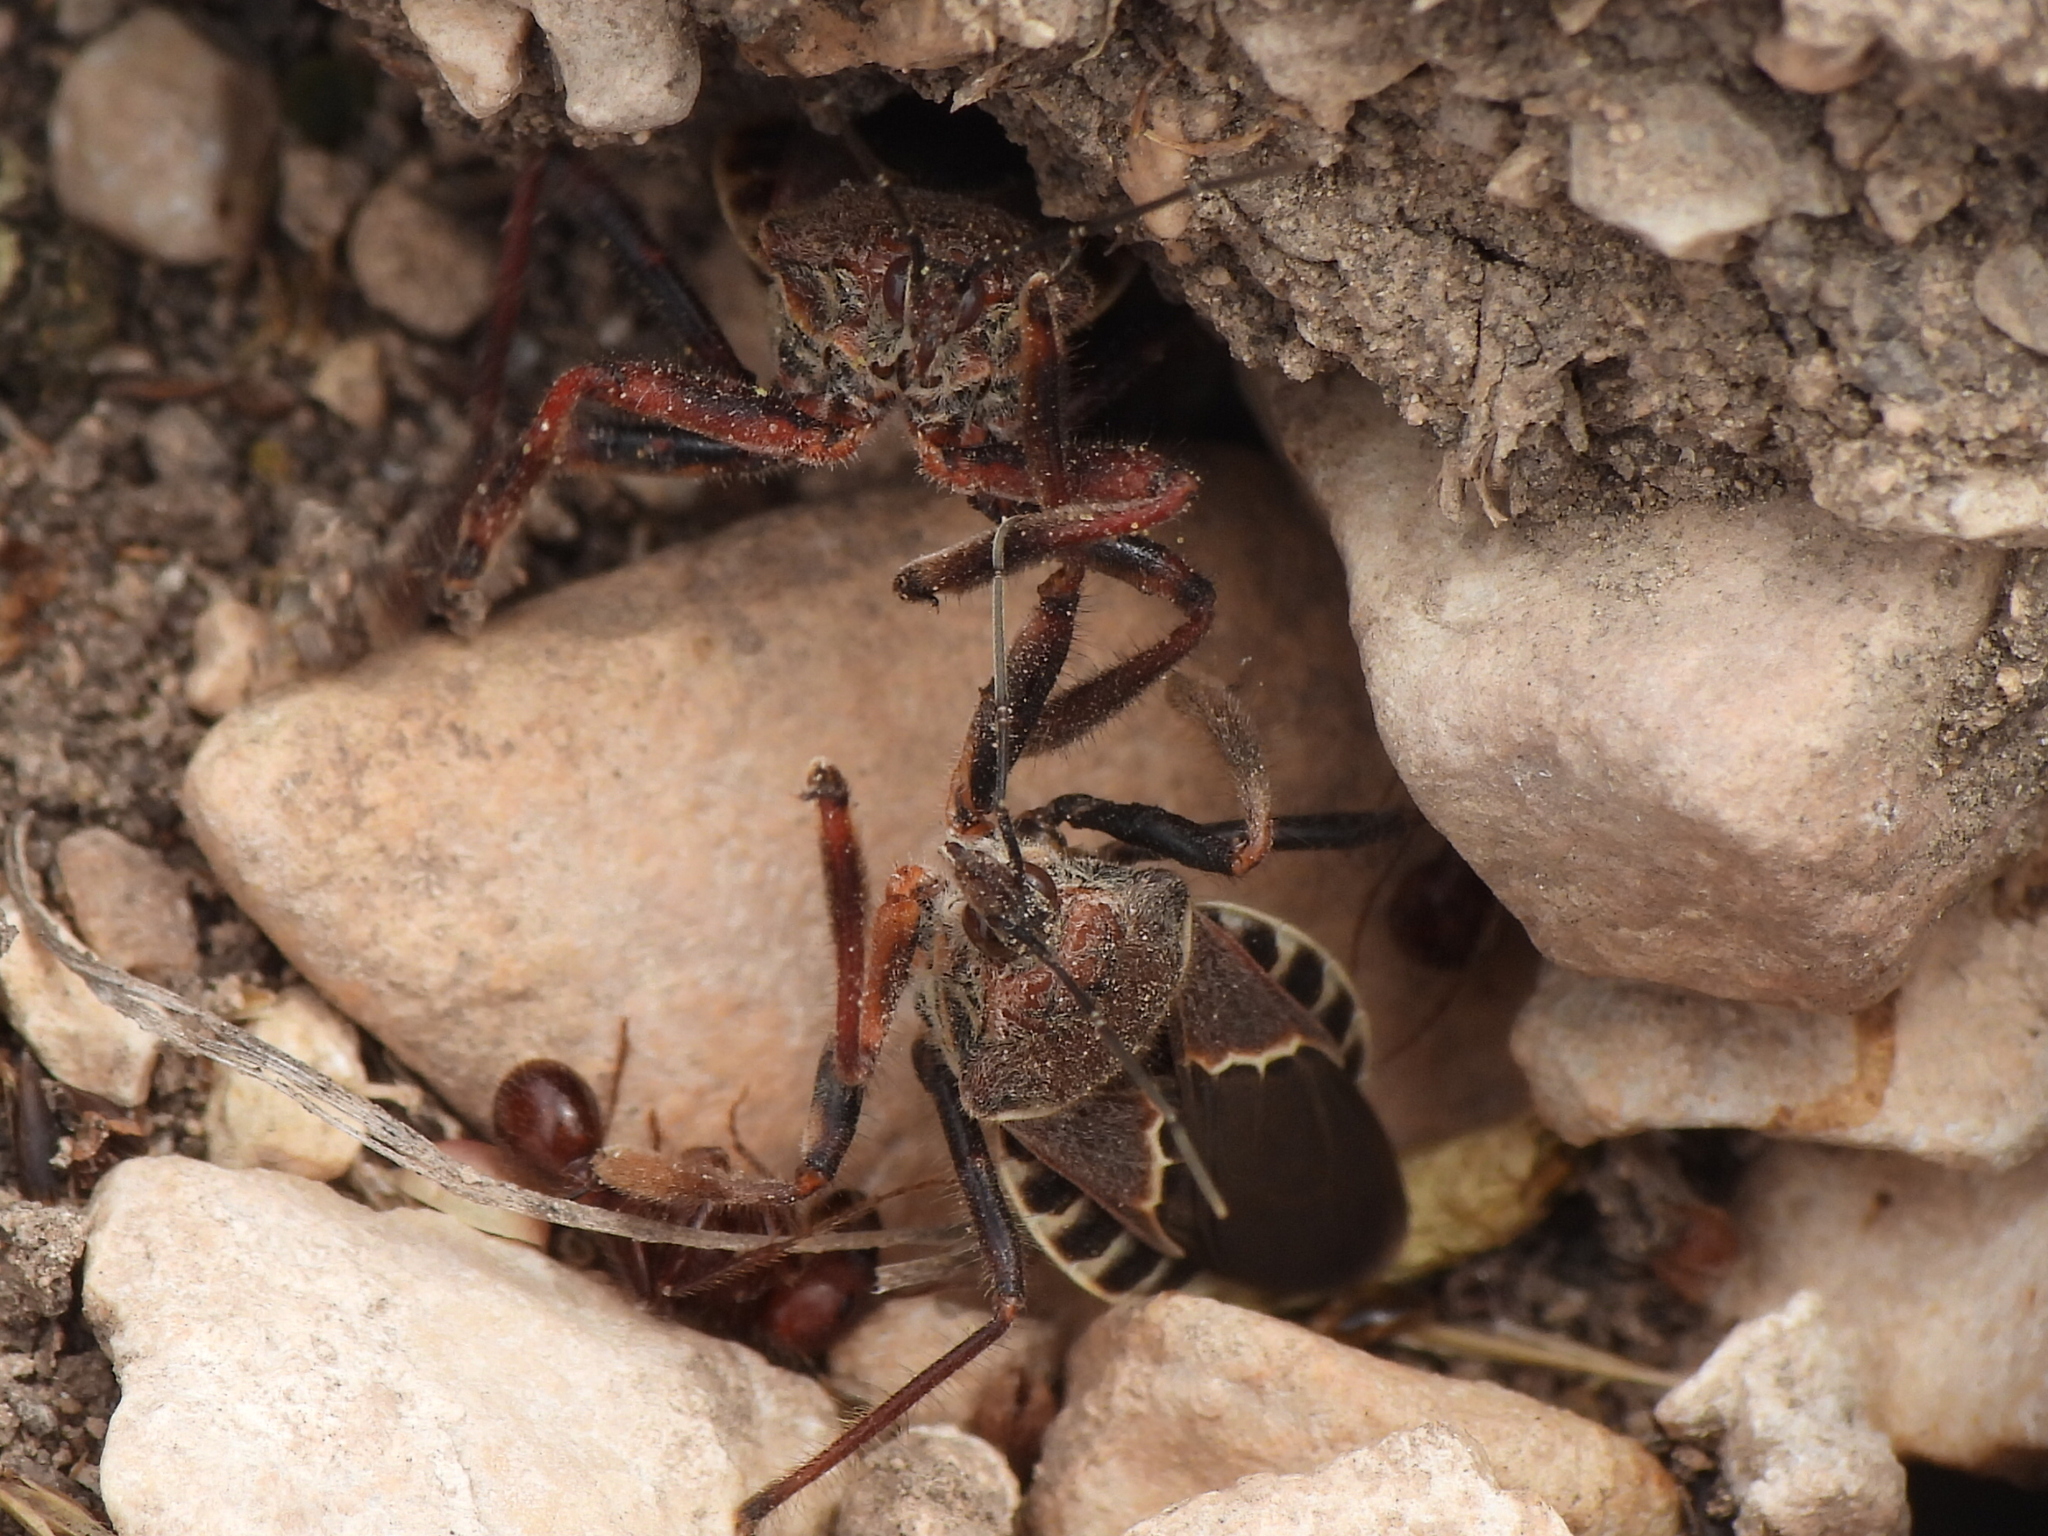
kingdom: Animalia
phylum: Arthropoda
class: Insecta
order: Hemiptera
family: Reduviidae
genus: Apiomerus
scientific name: Apiomerus spissipes
